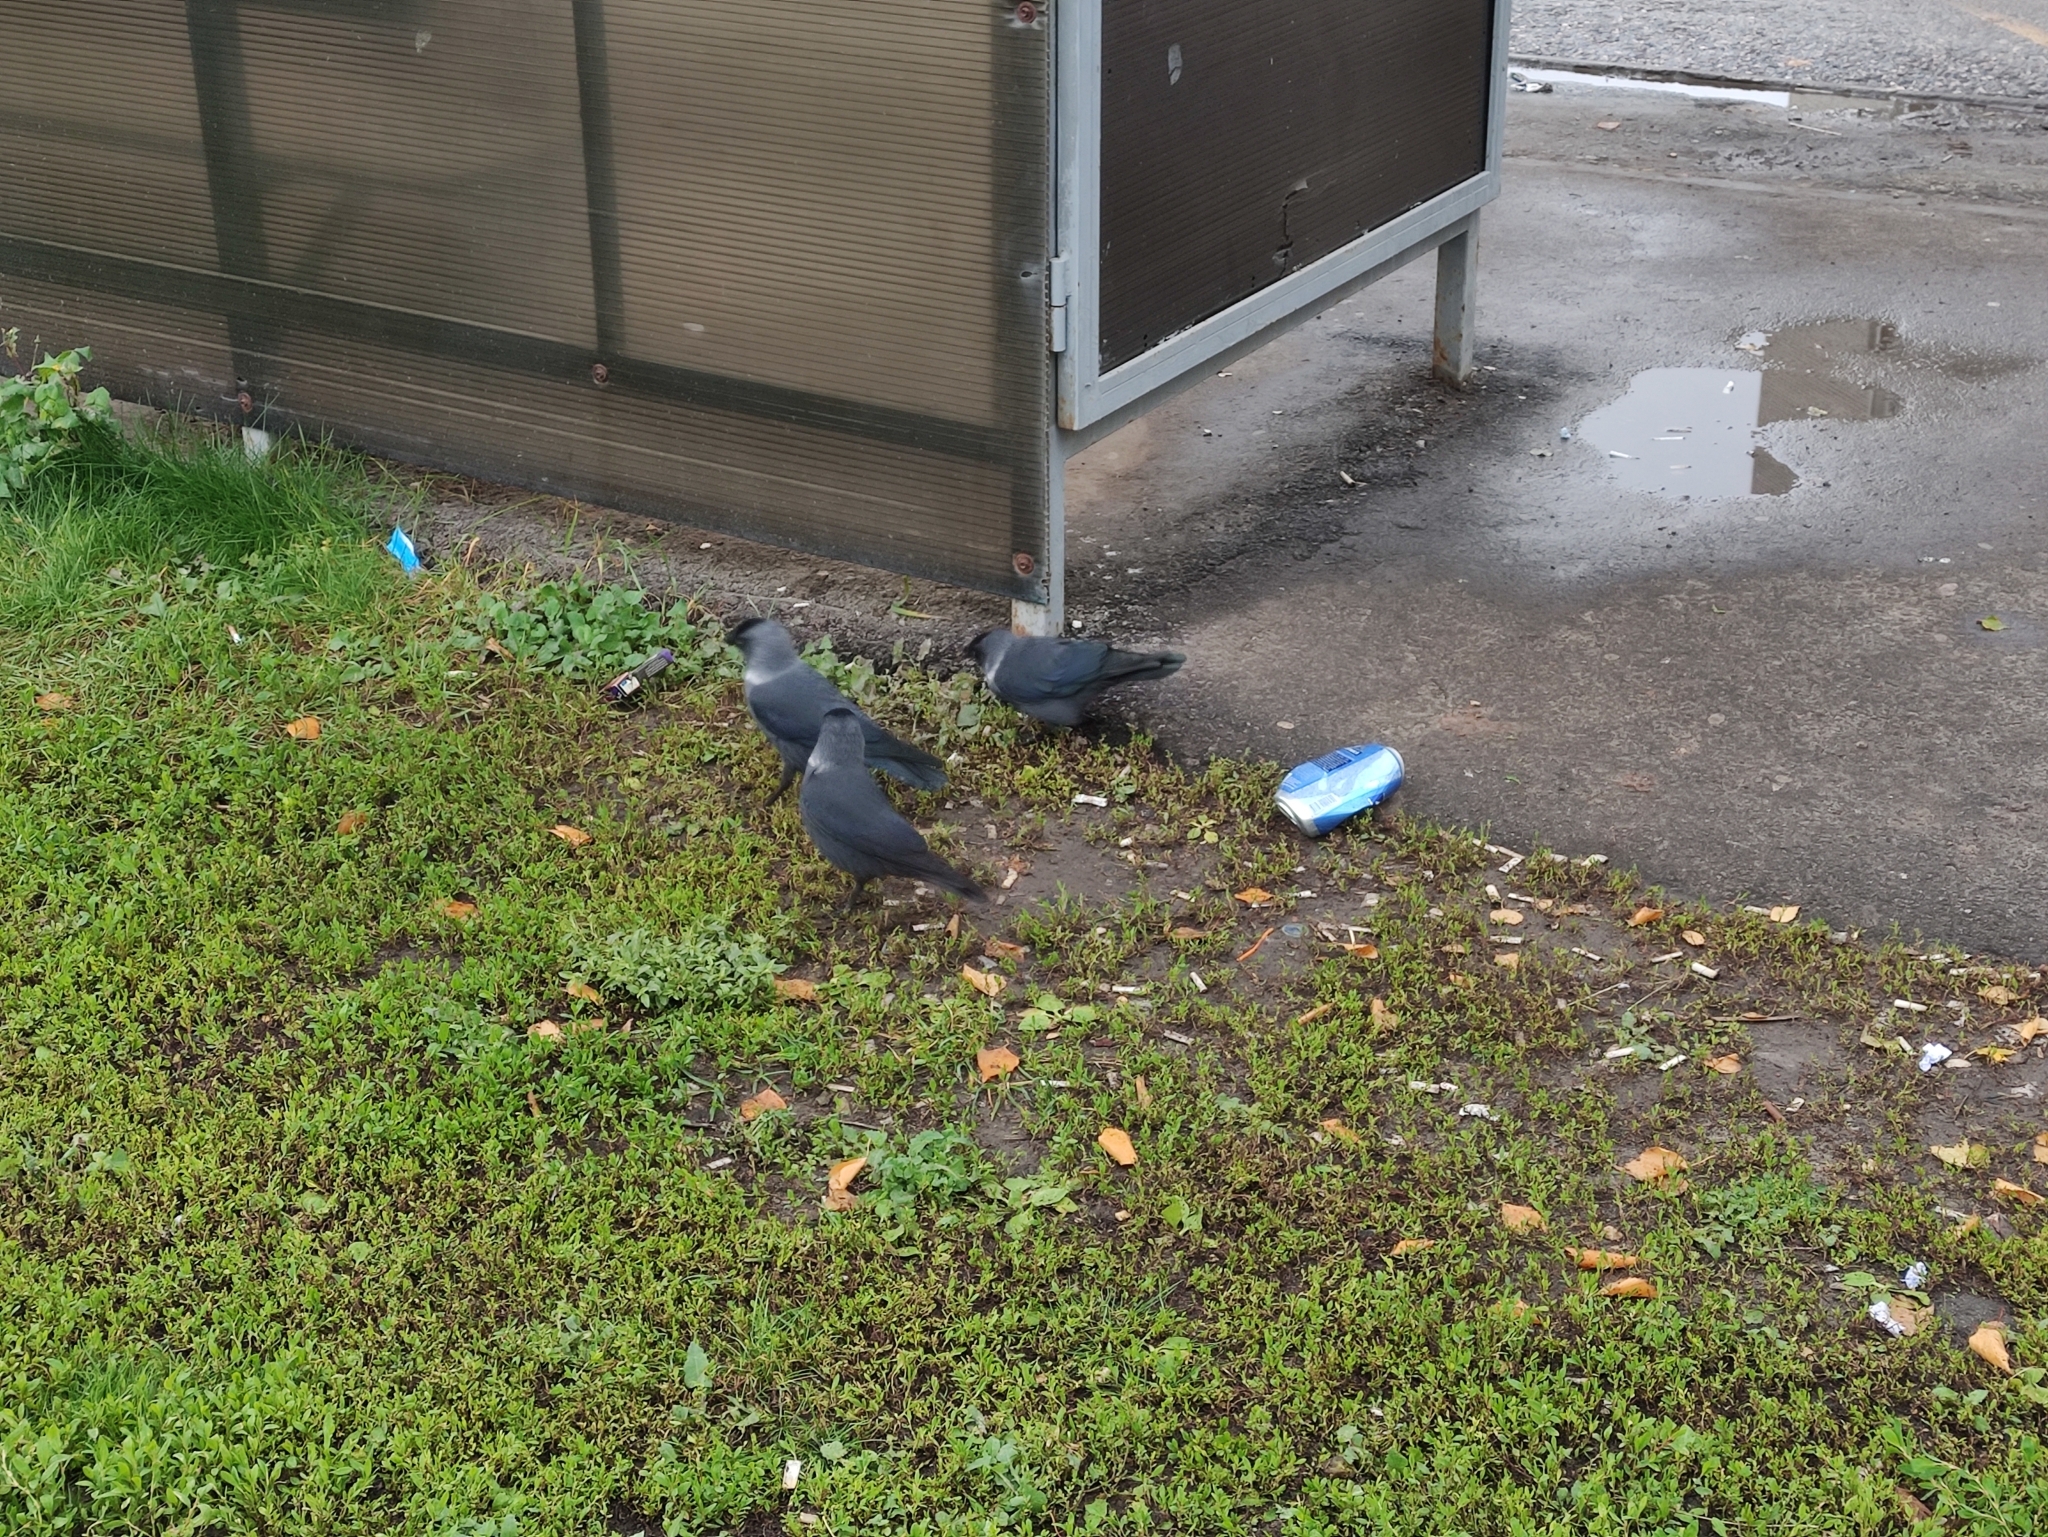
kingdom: Animalia
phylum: Chordata
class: Aves
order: Passeriformes
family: Corvidae
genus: Coloeus
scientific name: Coloeus monedula
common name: Western jackdaw
